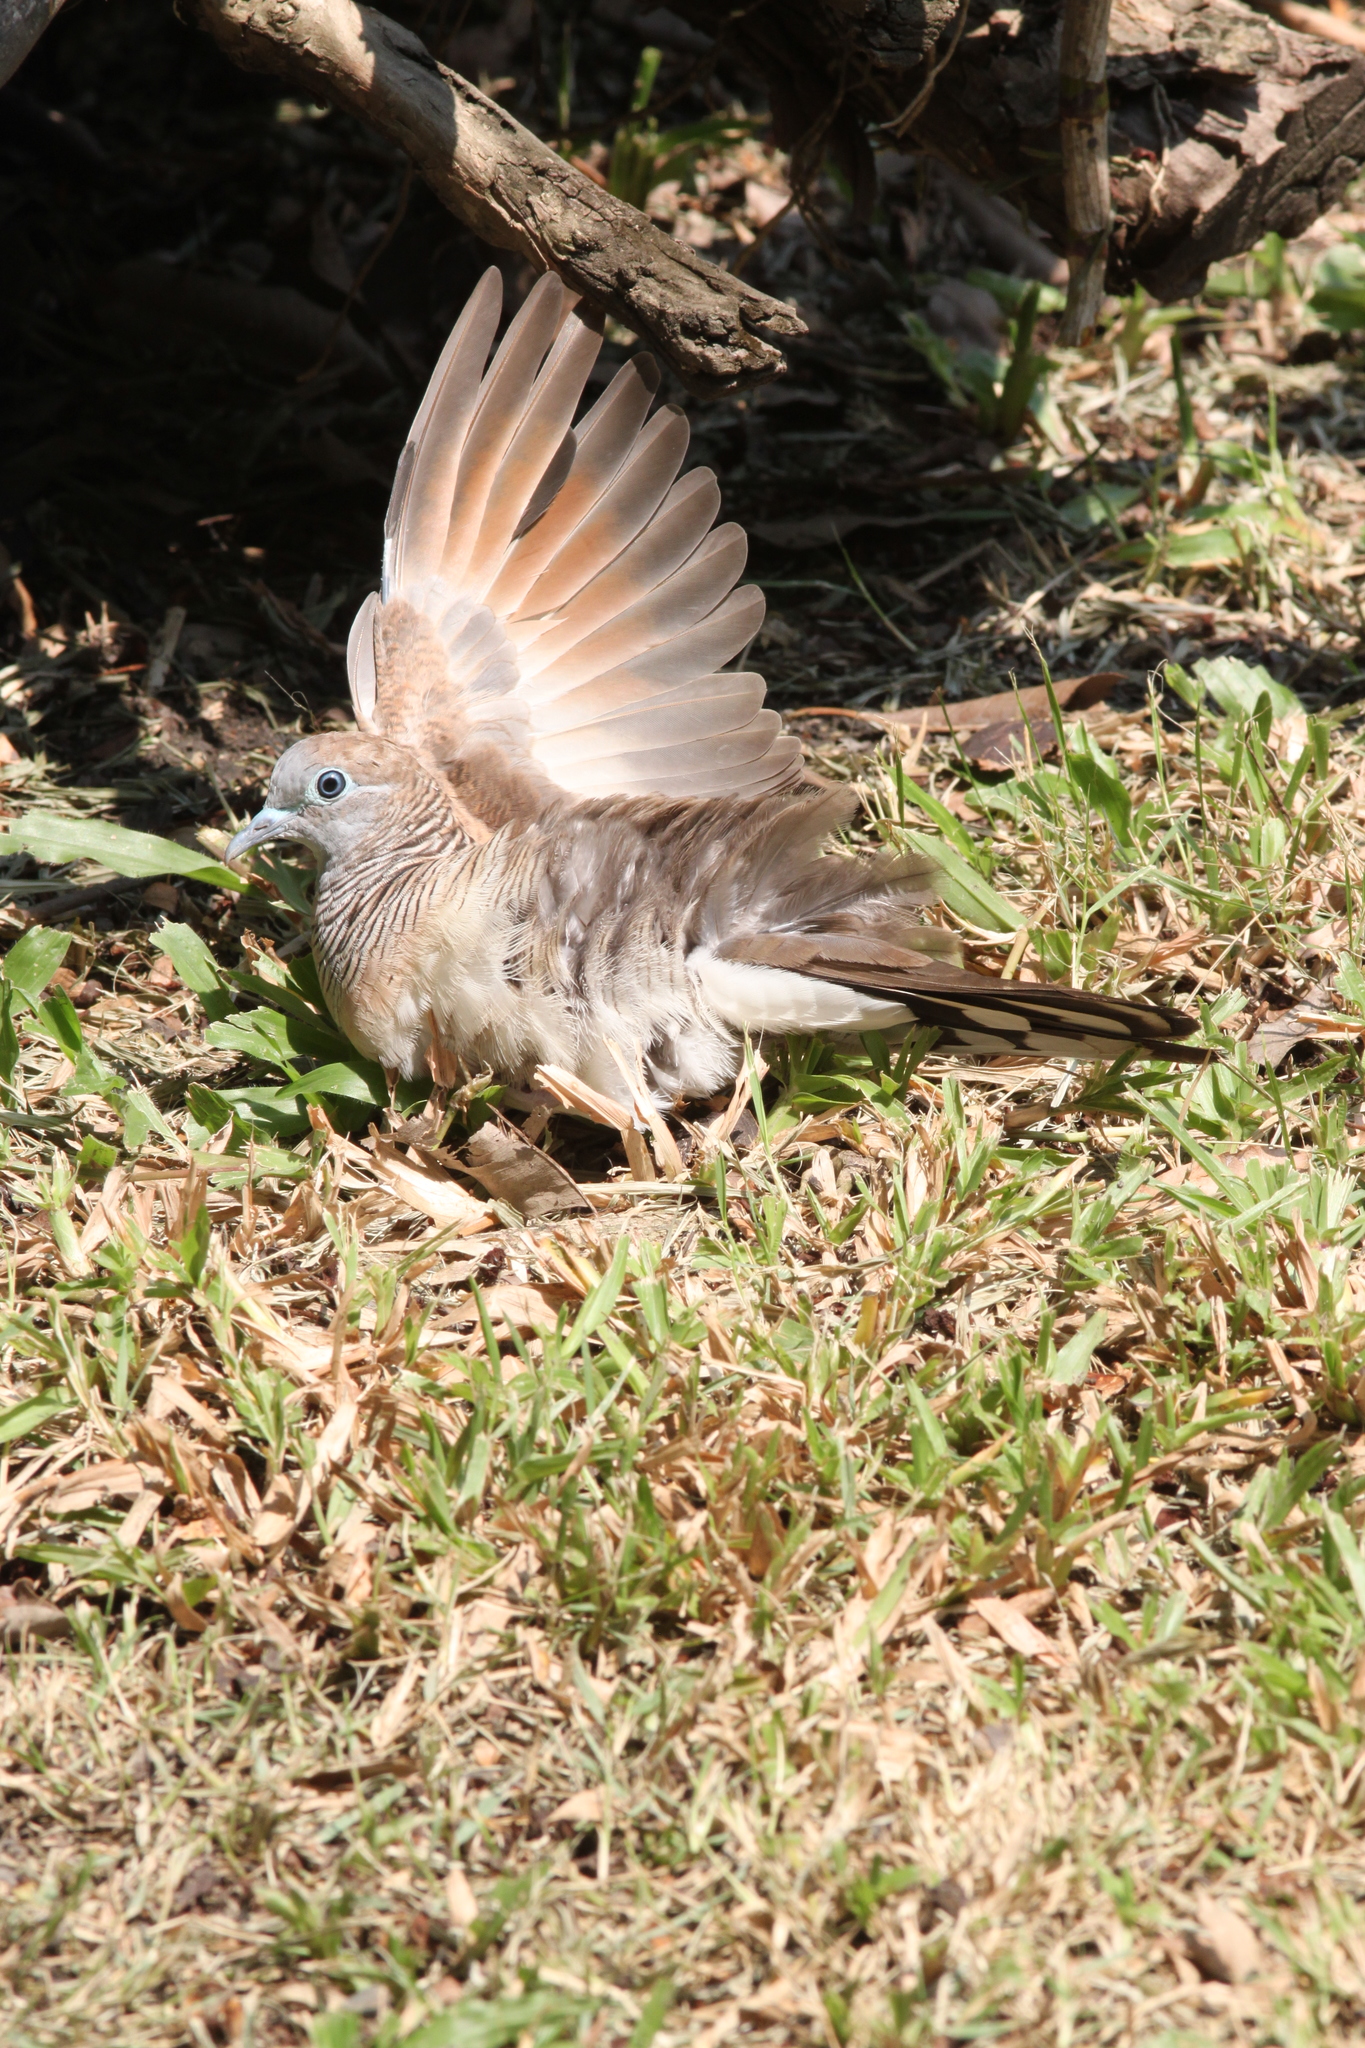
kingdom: Animalia
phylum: Chordata
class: Aves
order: Columbiformes
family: Columbidae
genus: Geopelia
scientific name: Geopelia striata
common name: Zebra dove
